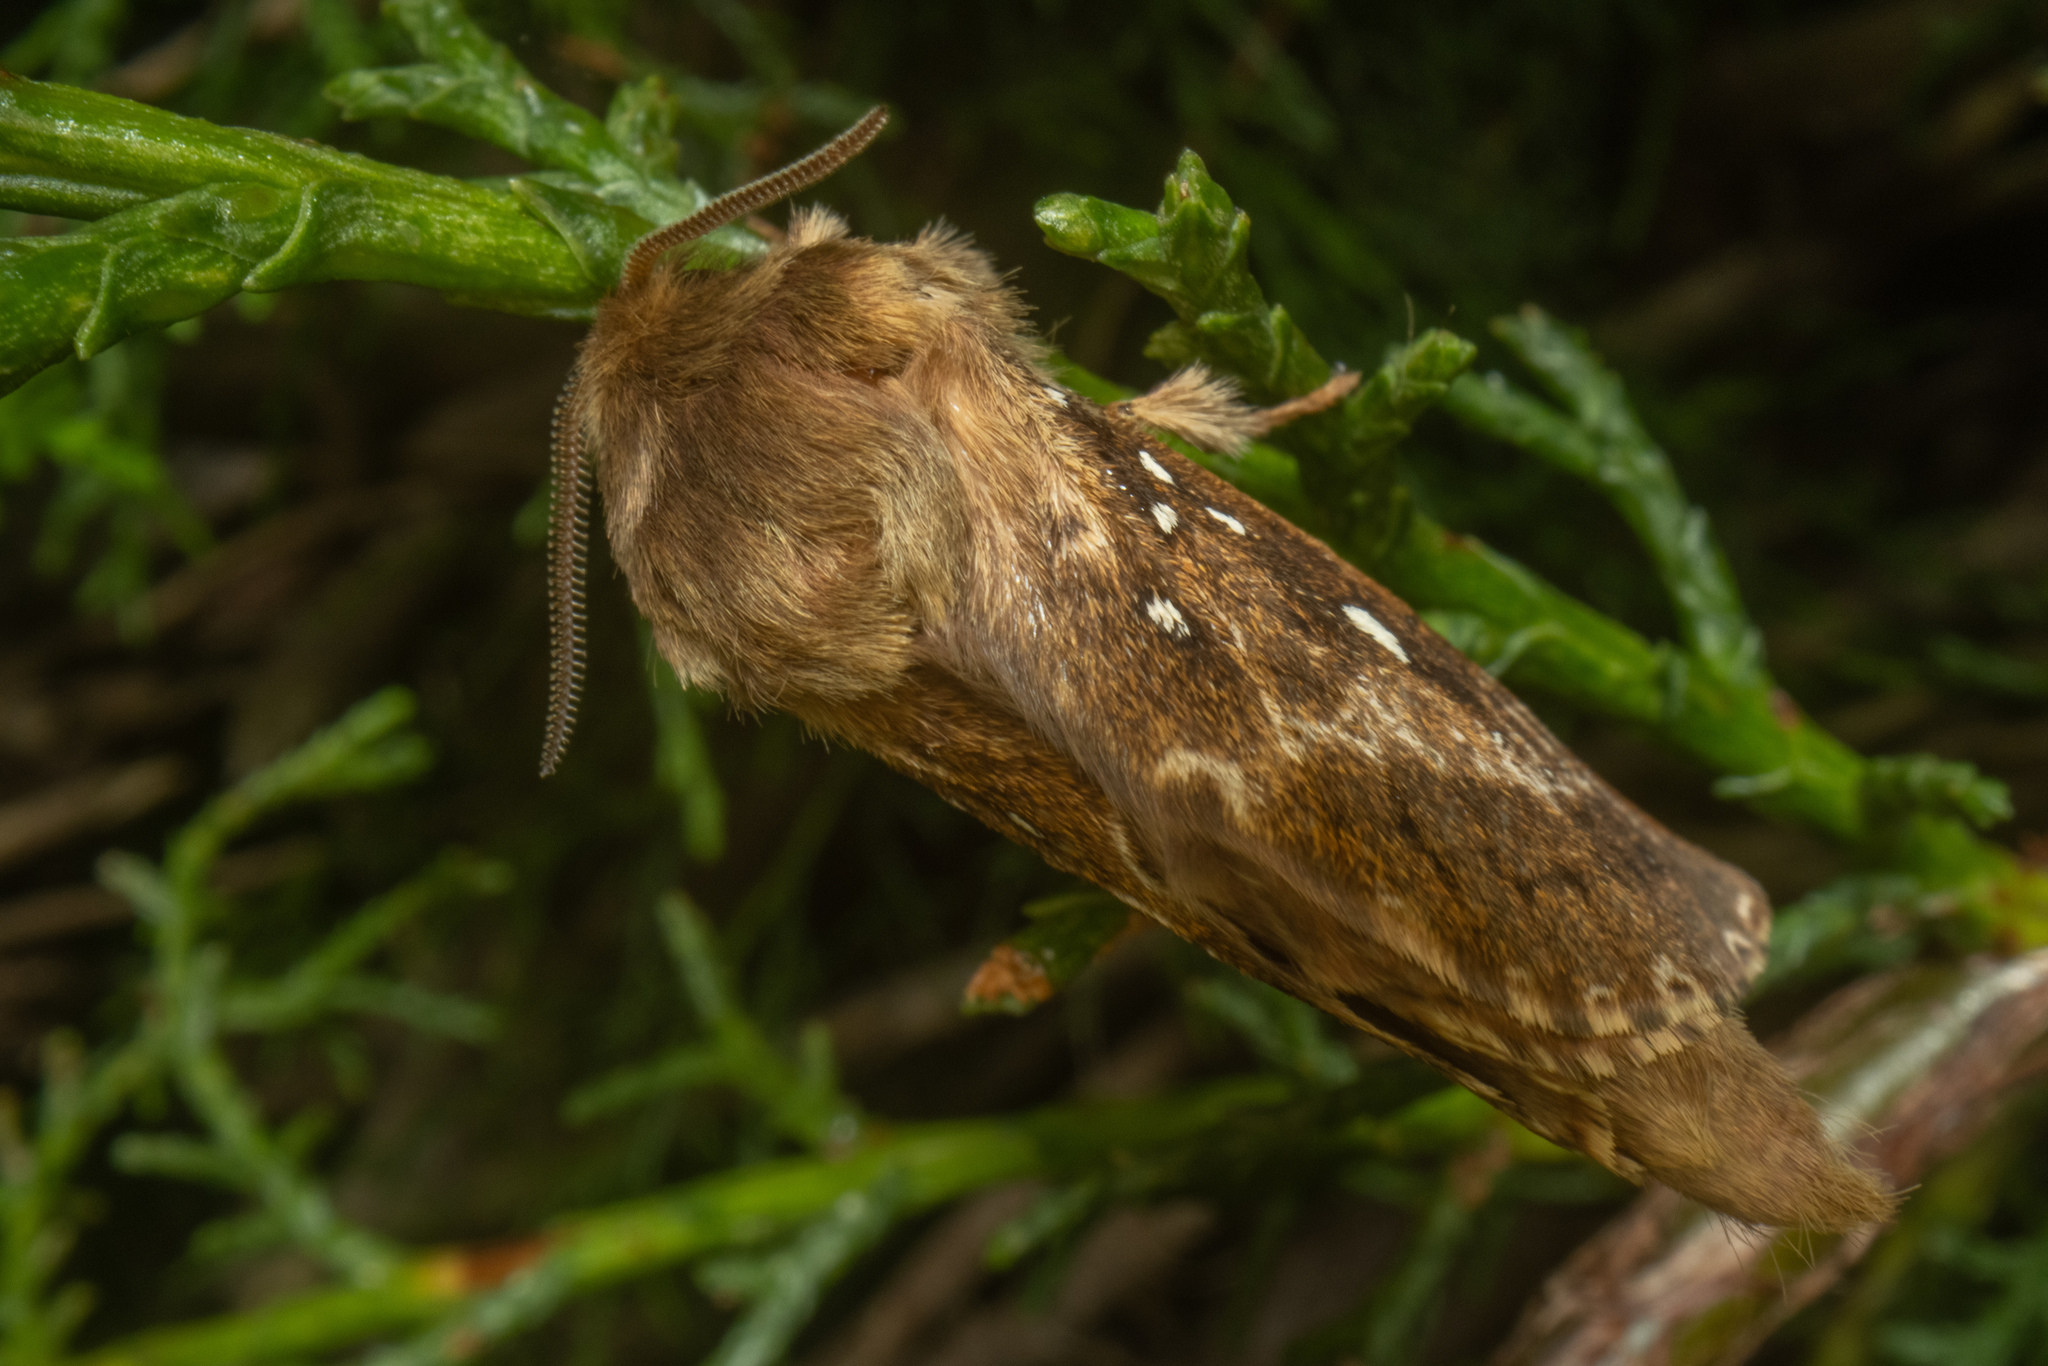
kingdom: Animalia
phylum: Arthropoda
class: Insecta
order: Lepidoptera
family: Hepialidae
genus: Wiseana
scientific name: Wiseana cervinata
